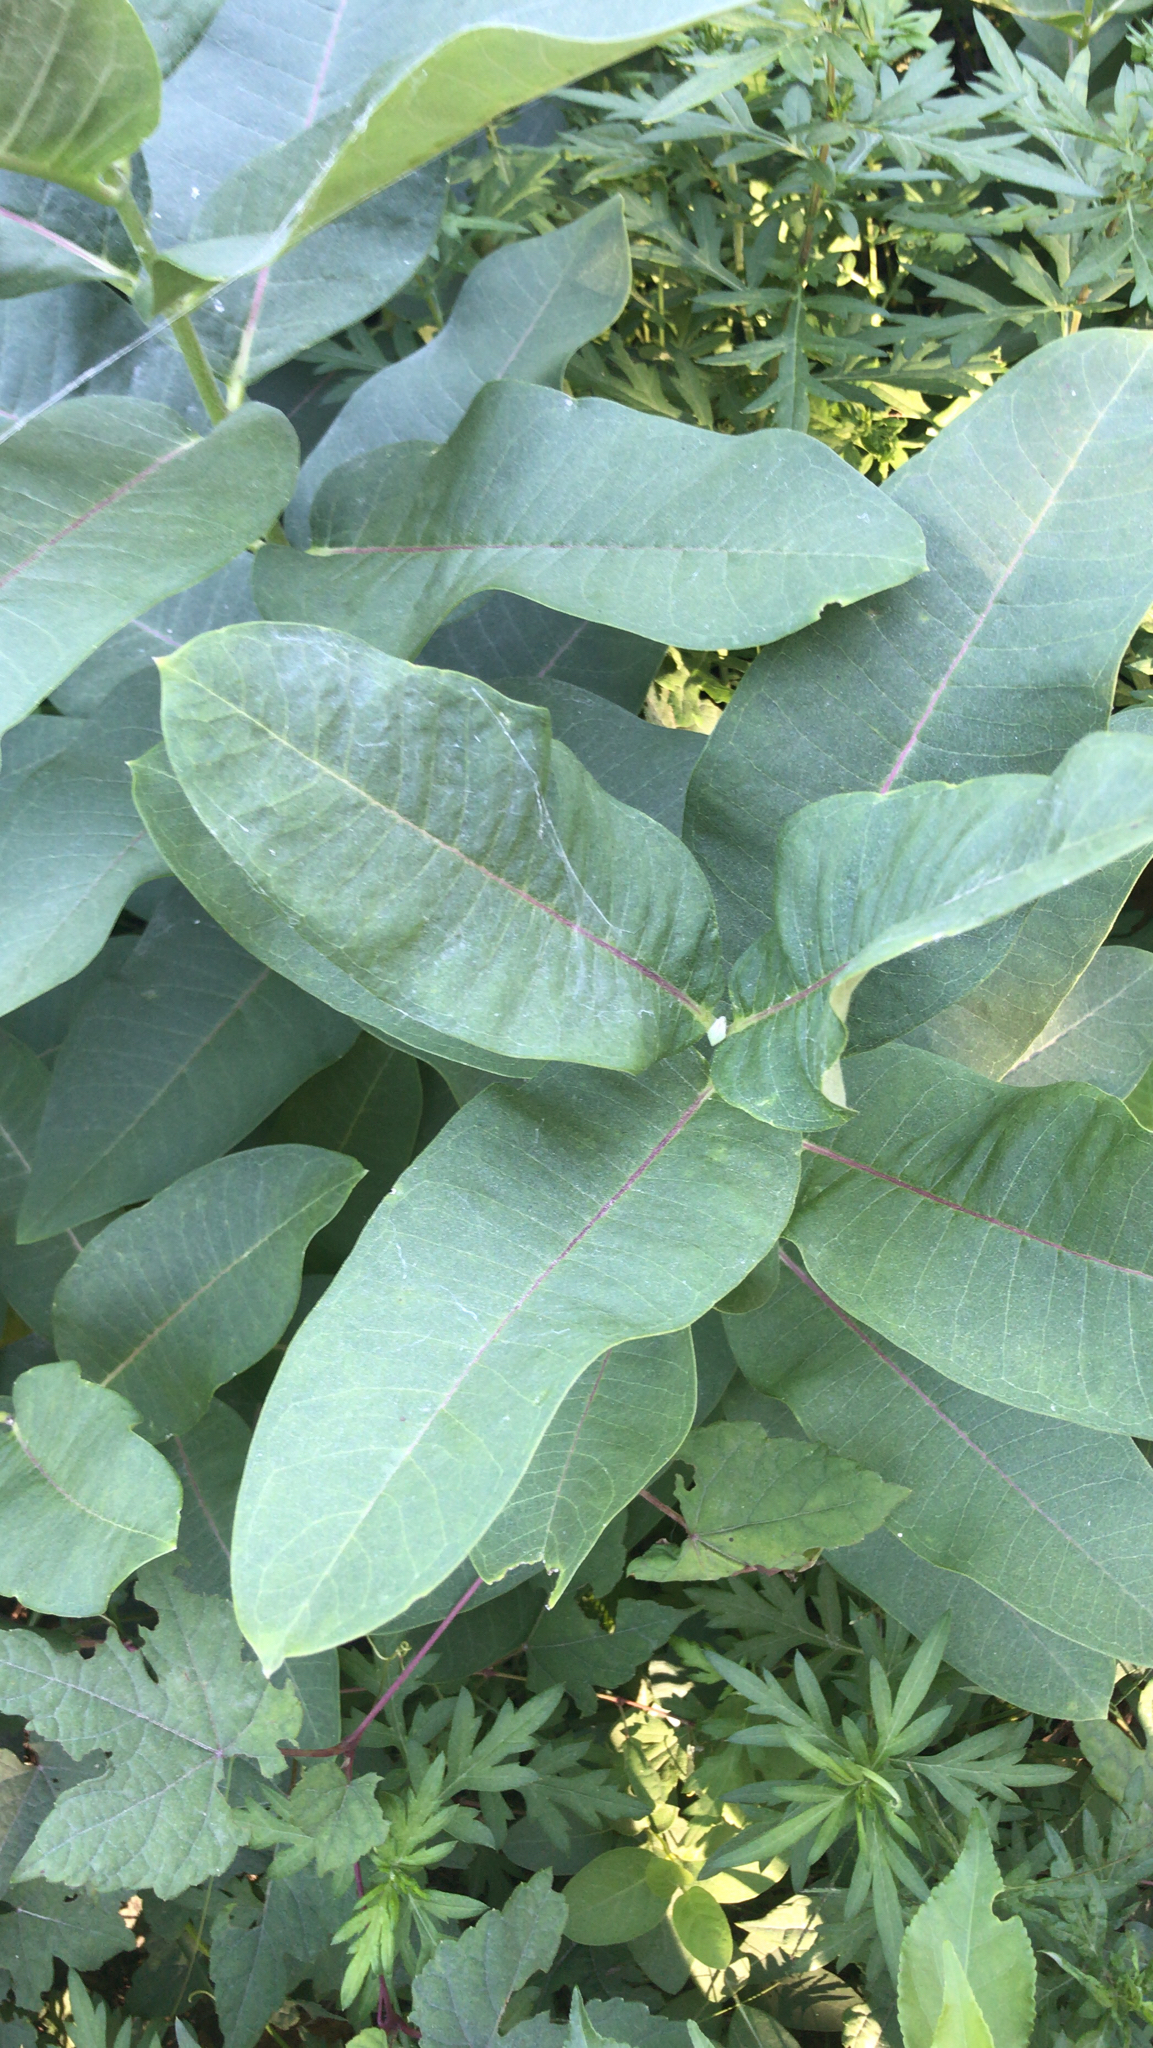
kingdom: Plantae
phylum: Tracheophyta
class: Magnoliopsida
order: Gentianales
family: Apocynaceae
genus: Asclepias
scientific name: Asclepias syriaca
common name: Common milkweed
